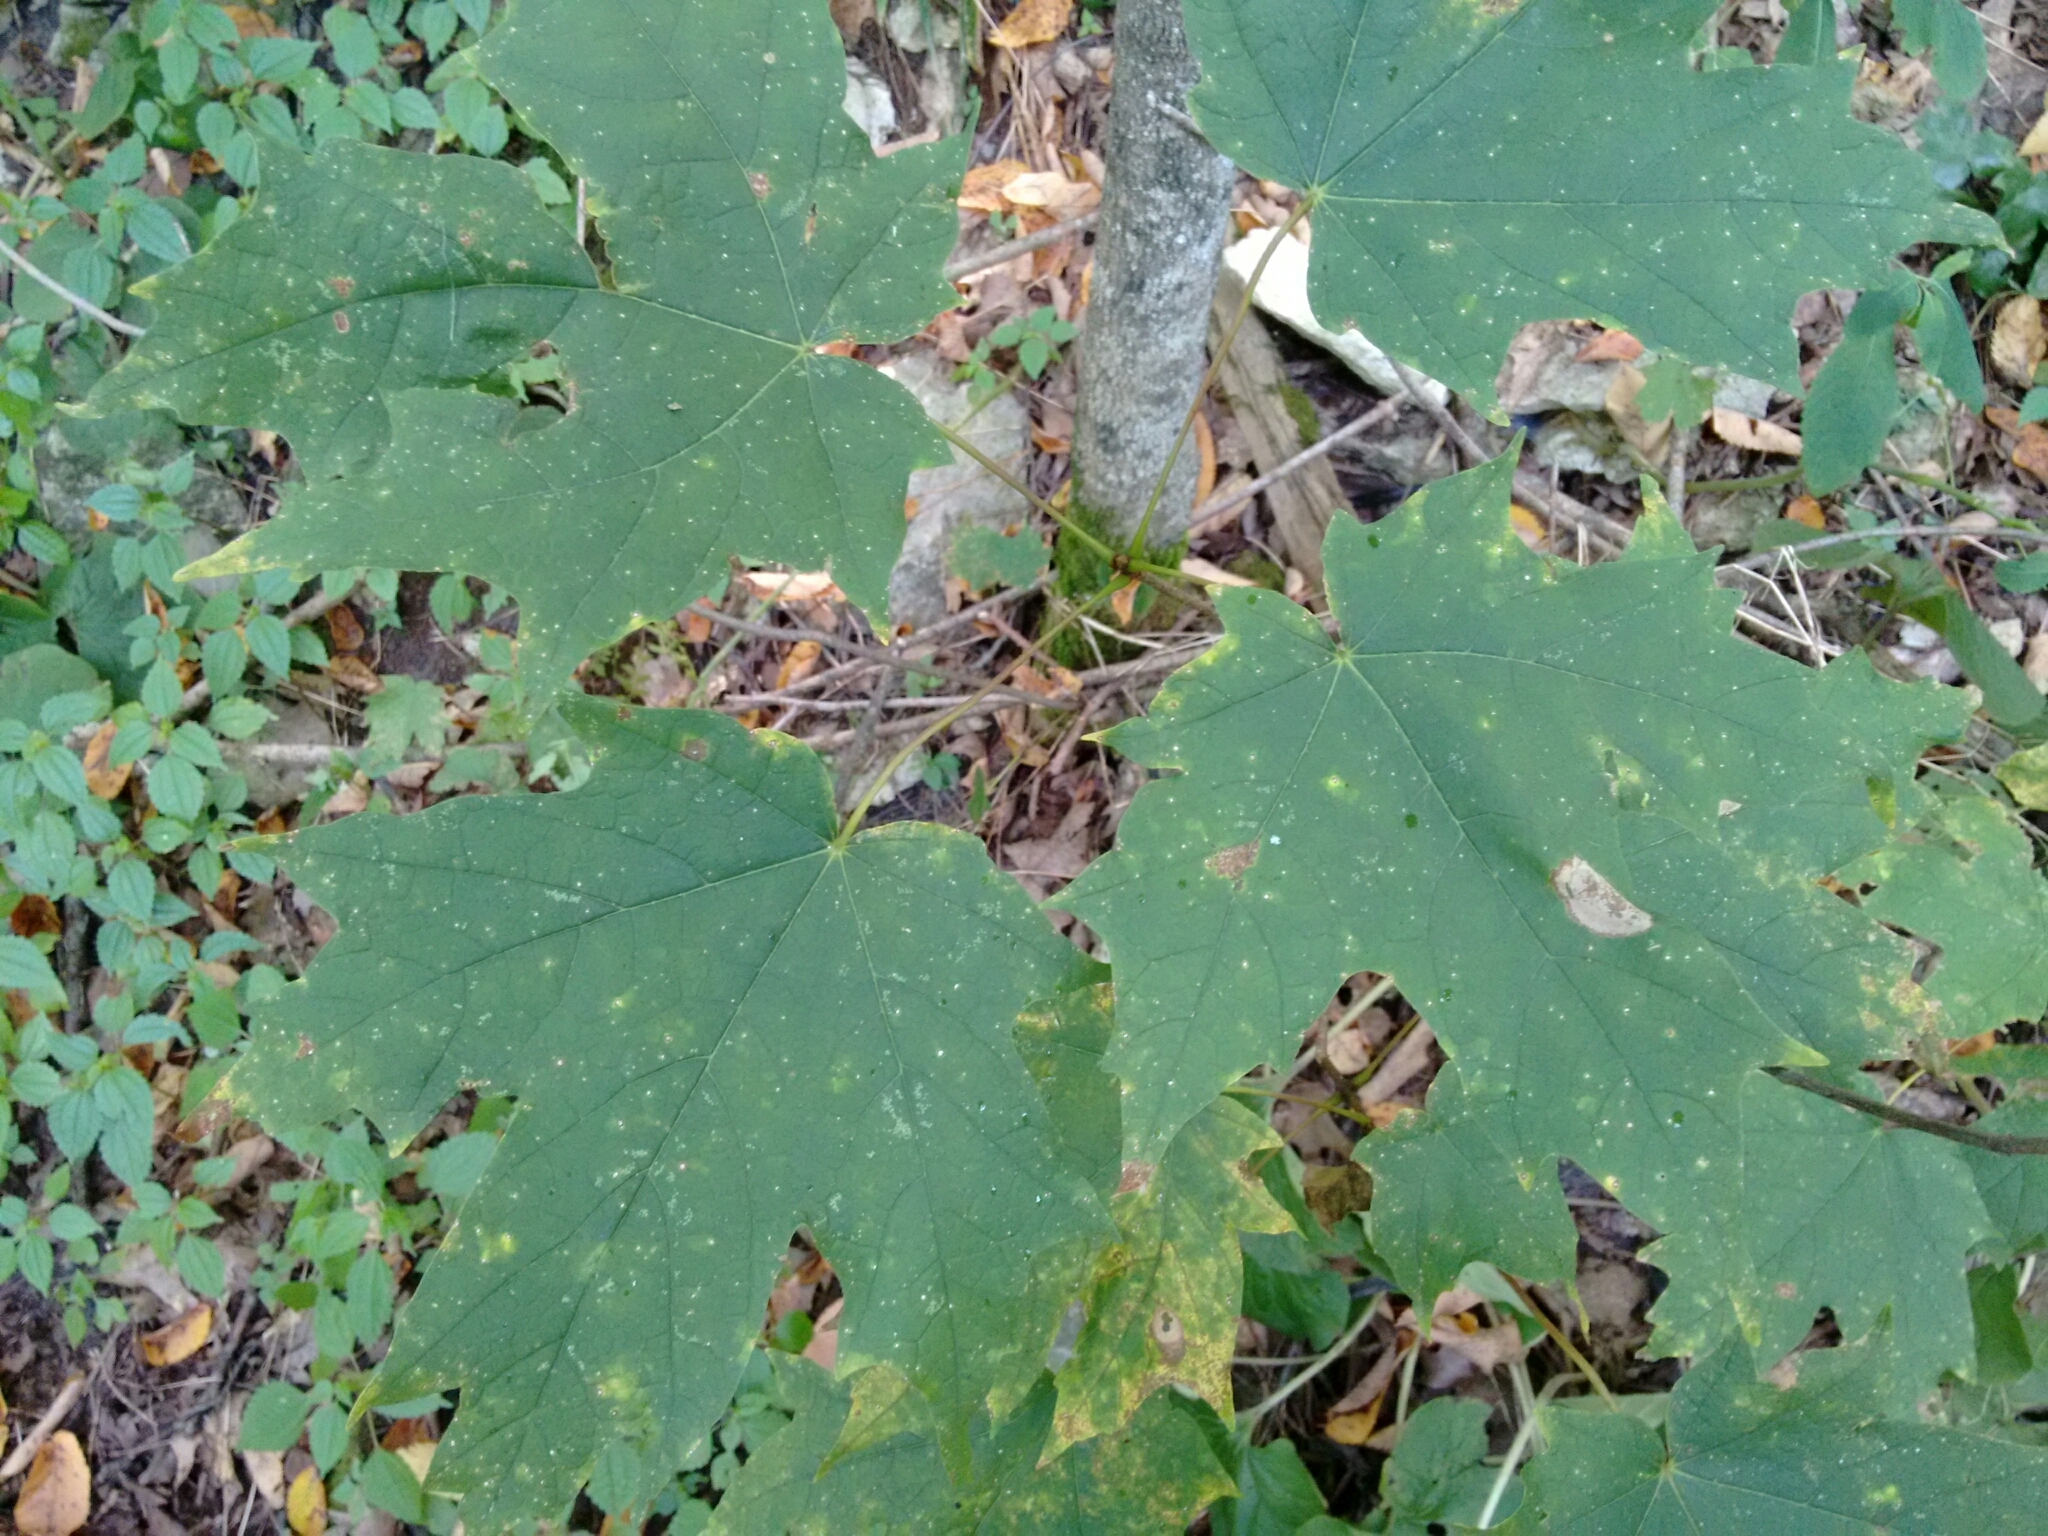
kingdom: Plantae
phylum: Tracheophyta
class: Magnoliopsida
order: Sapindales
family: Sapindaceae
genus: Acer
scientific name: Acer saccharum
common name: Sugar maple
